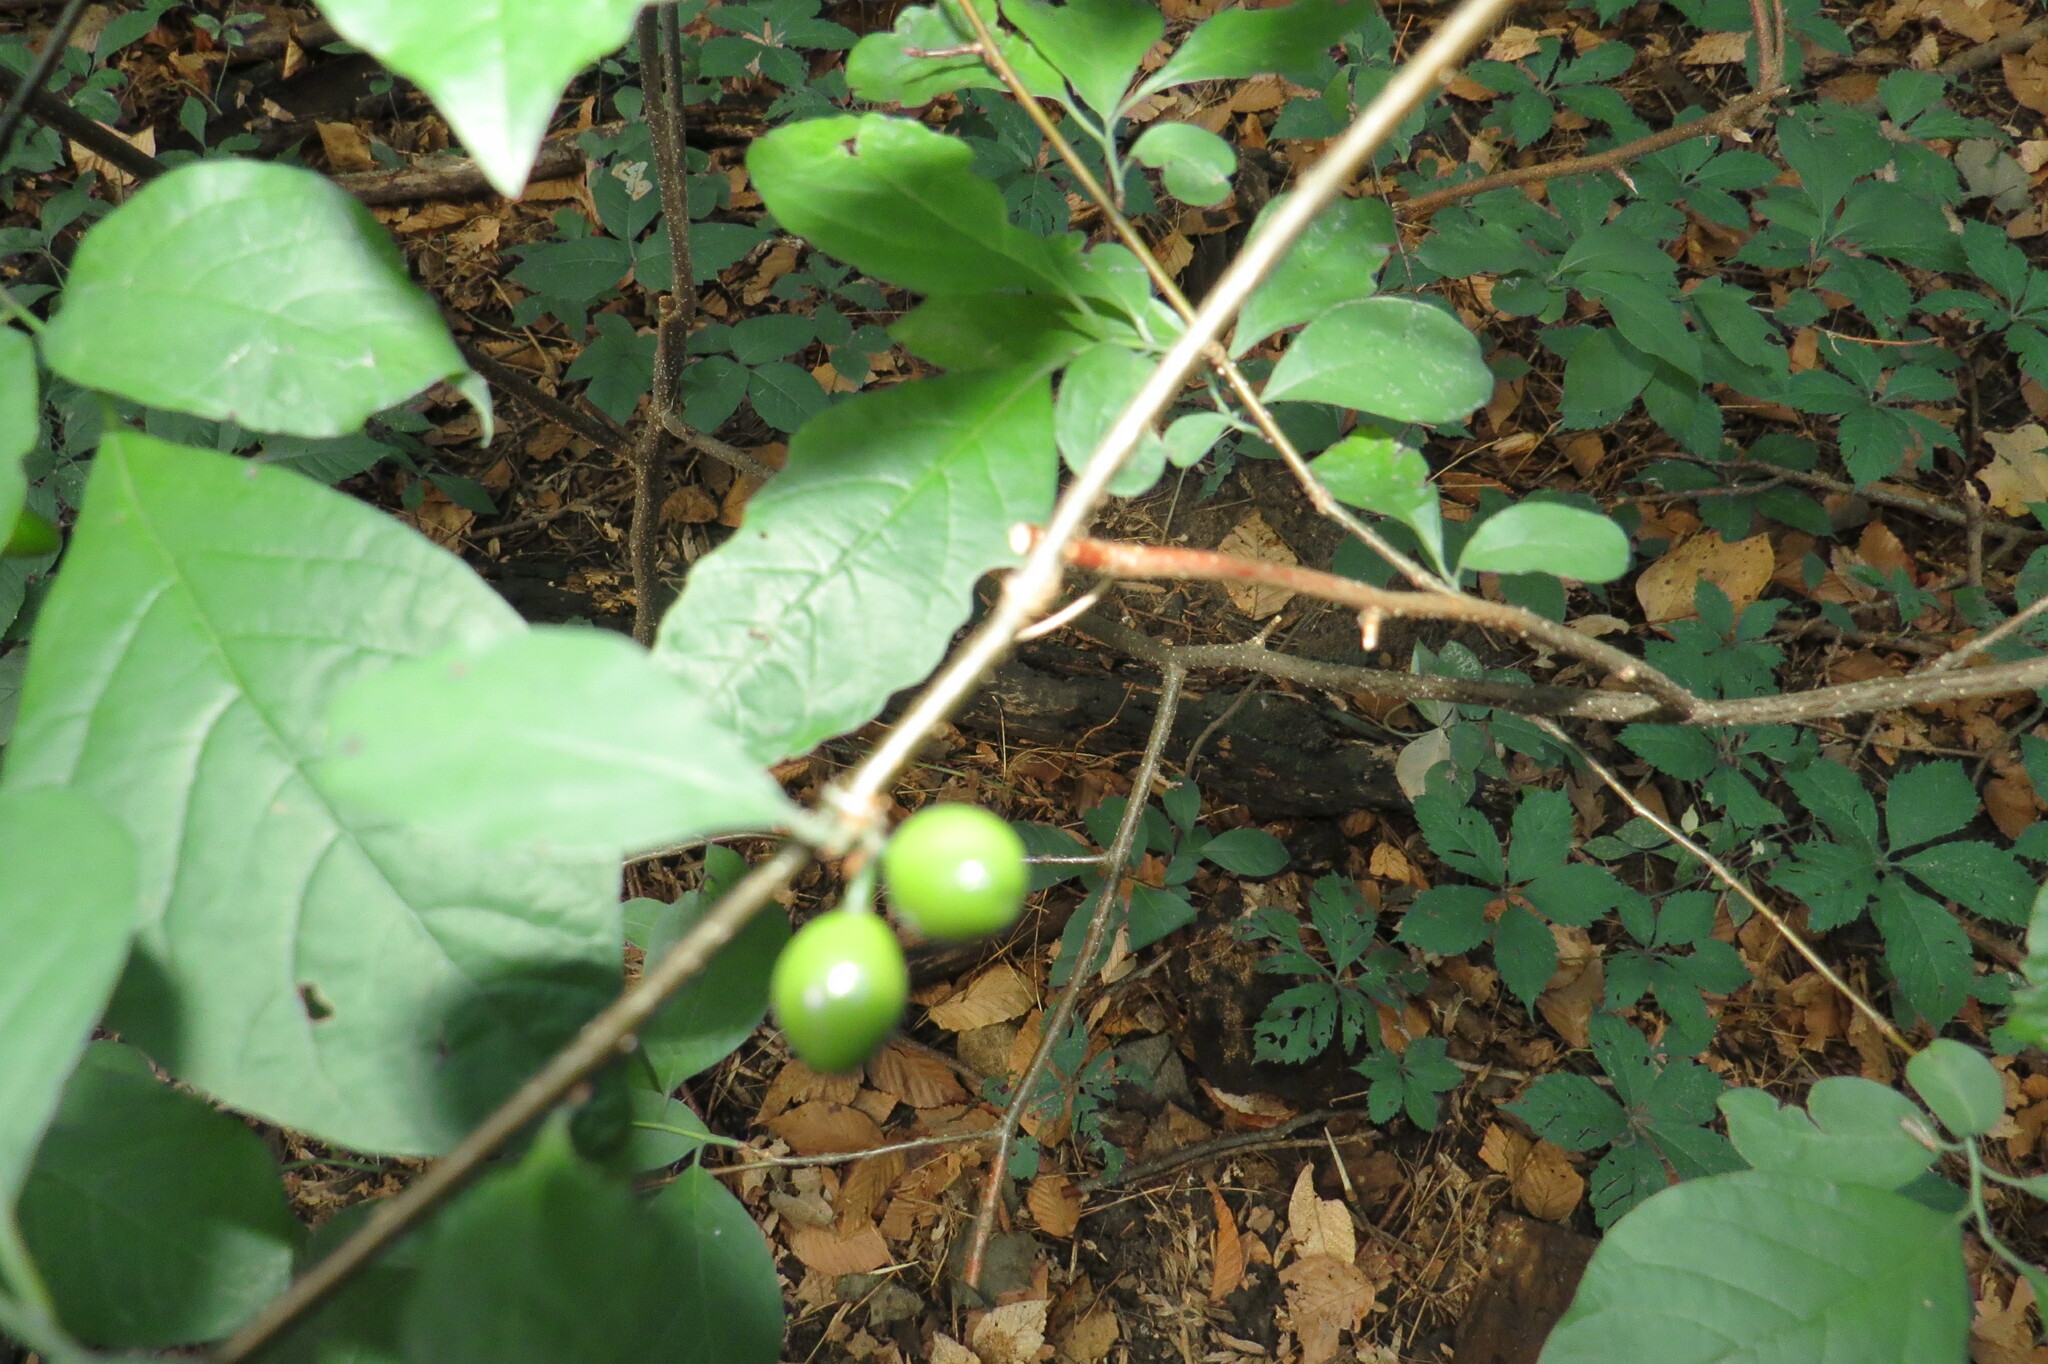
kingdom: Plantae
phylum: Tracheophyta
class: Magnoliopsida
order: Laurales
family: Lauraceae
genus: Lindera
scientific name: Lindera benzoin
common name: Spicebush
